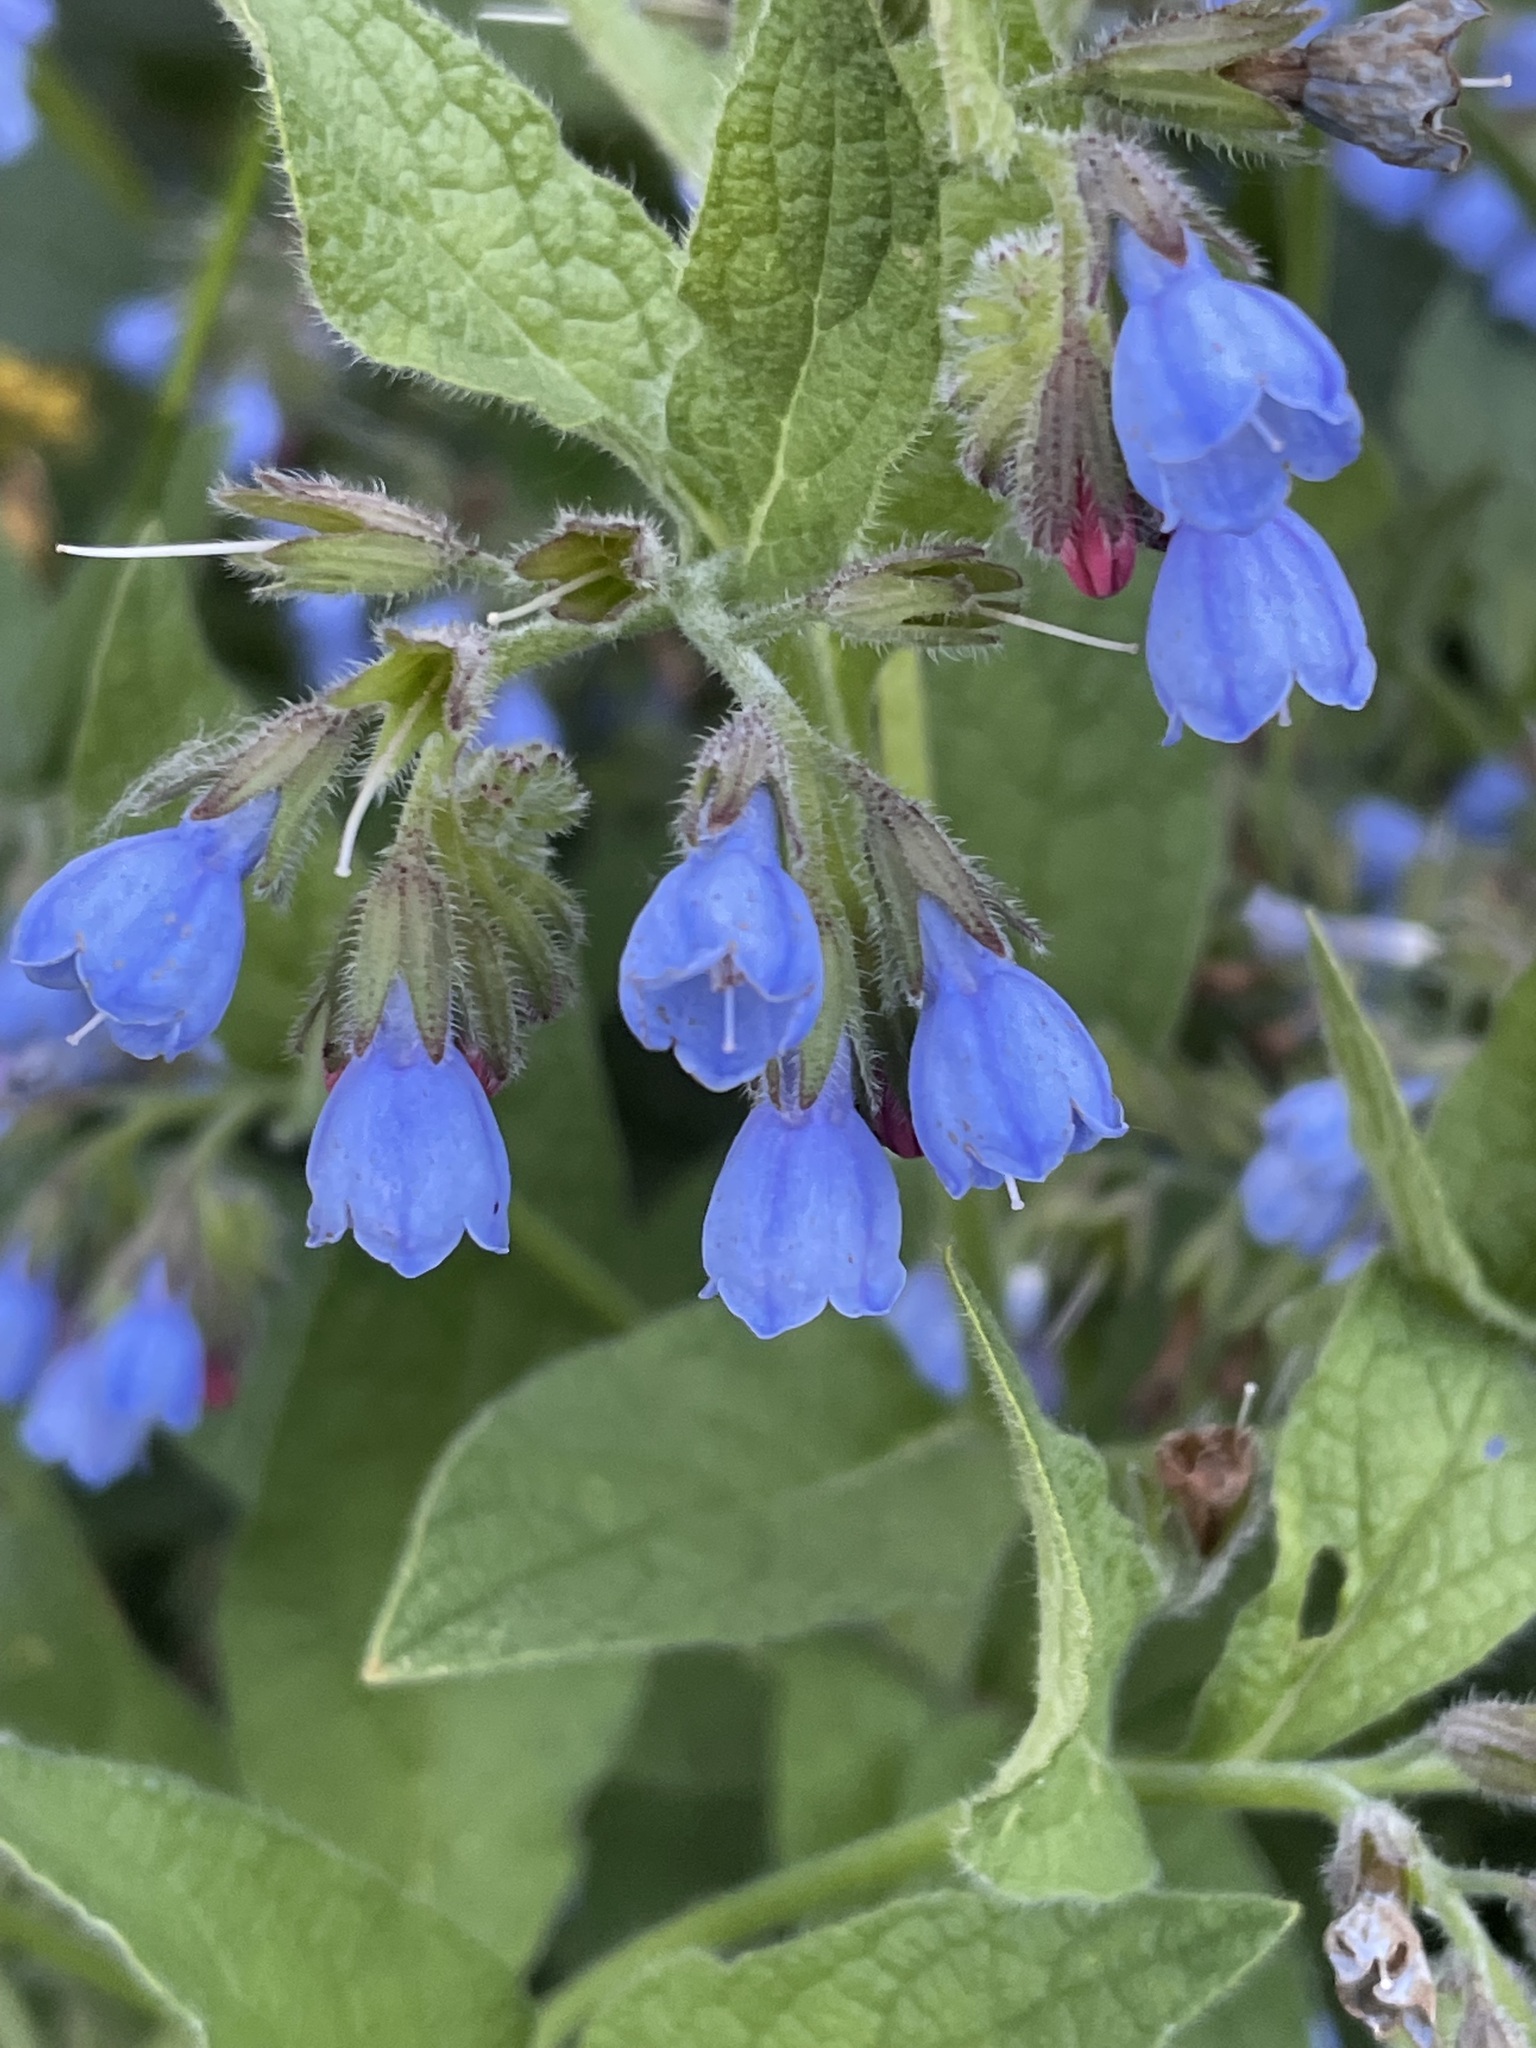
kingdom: Plantae
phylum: Tracheophyta
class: Magnoliopsida
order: Boraginales
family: Boraginaceae
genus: Symphytum
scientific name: Symphytum caucasicum
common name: Caucasian comfrey
